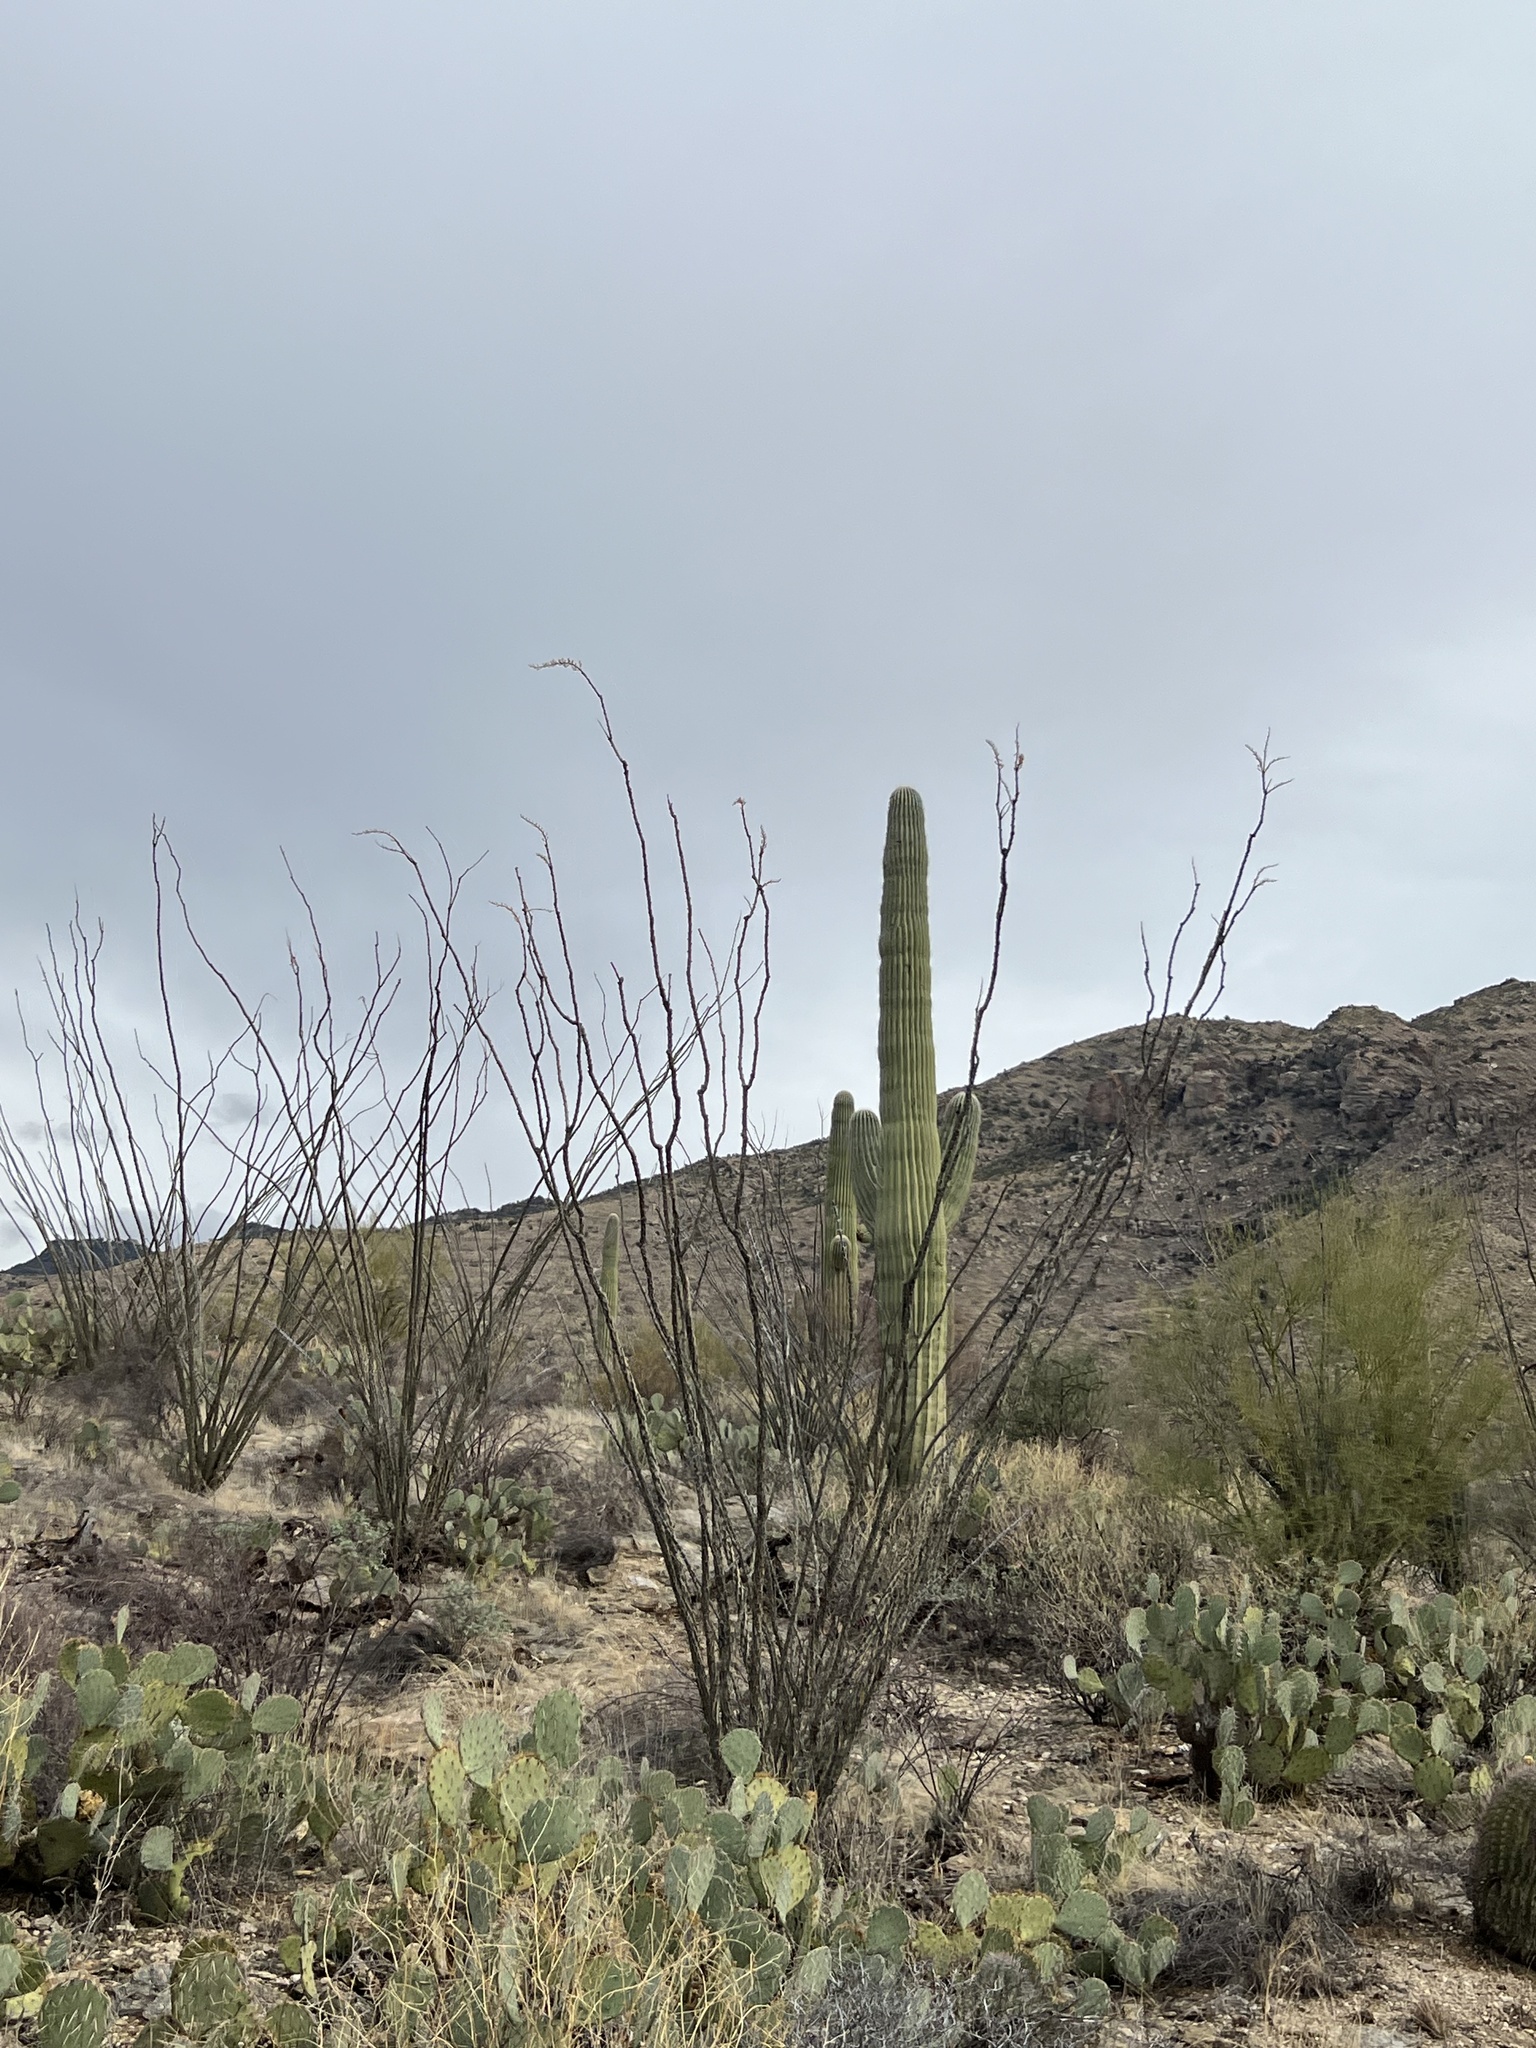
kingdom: Plantae
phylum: Tracheophyta
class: Magnoliopsida
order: Ericales
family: Fouquieriaceae
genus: Fouquieria
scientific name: Fouquieria splendens
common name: Vine-cactus
